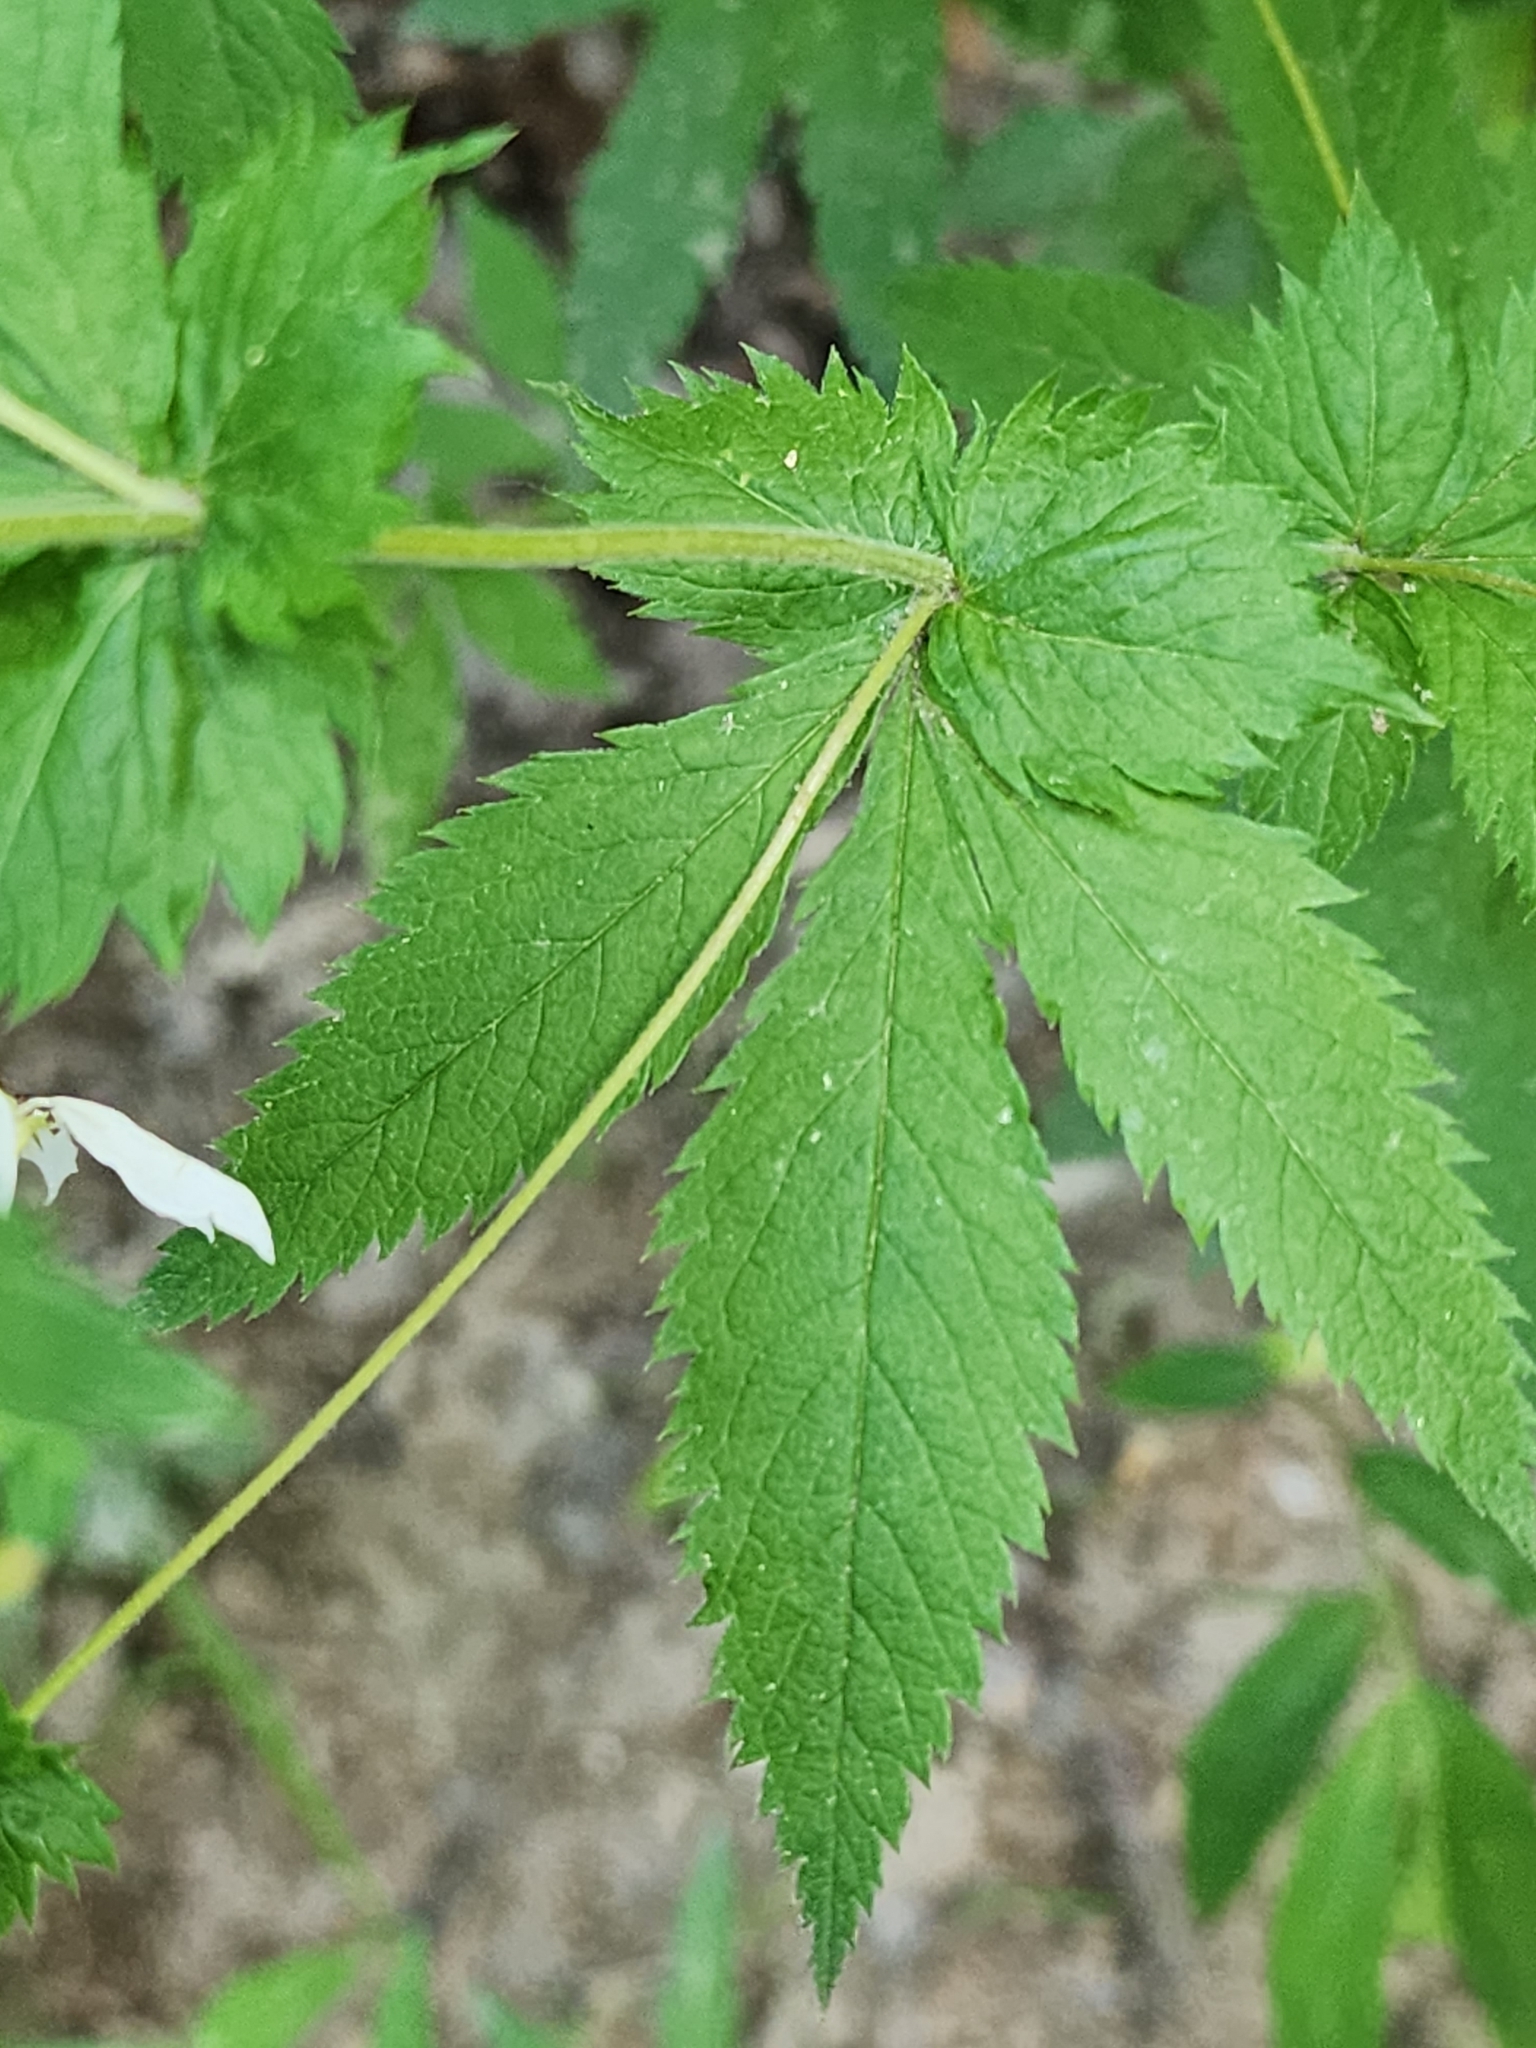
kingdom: Plantae
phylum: Tracheophyta
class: Magnoliopsida
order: Rosales
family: Rosaceae
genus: Gillenia
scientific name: Gillenia stipulata
